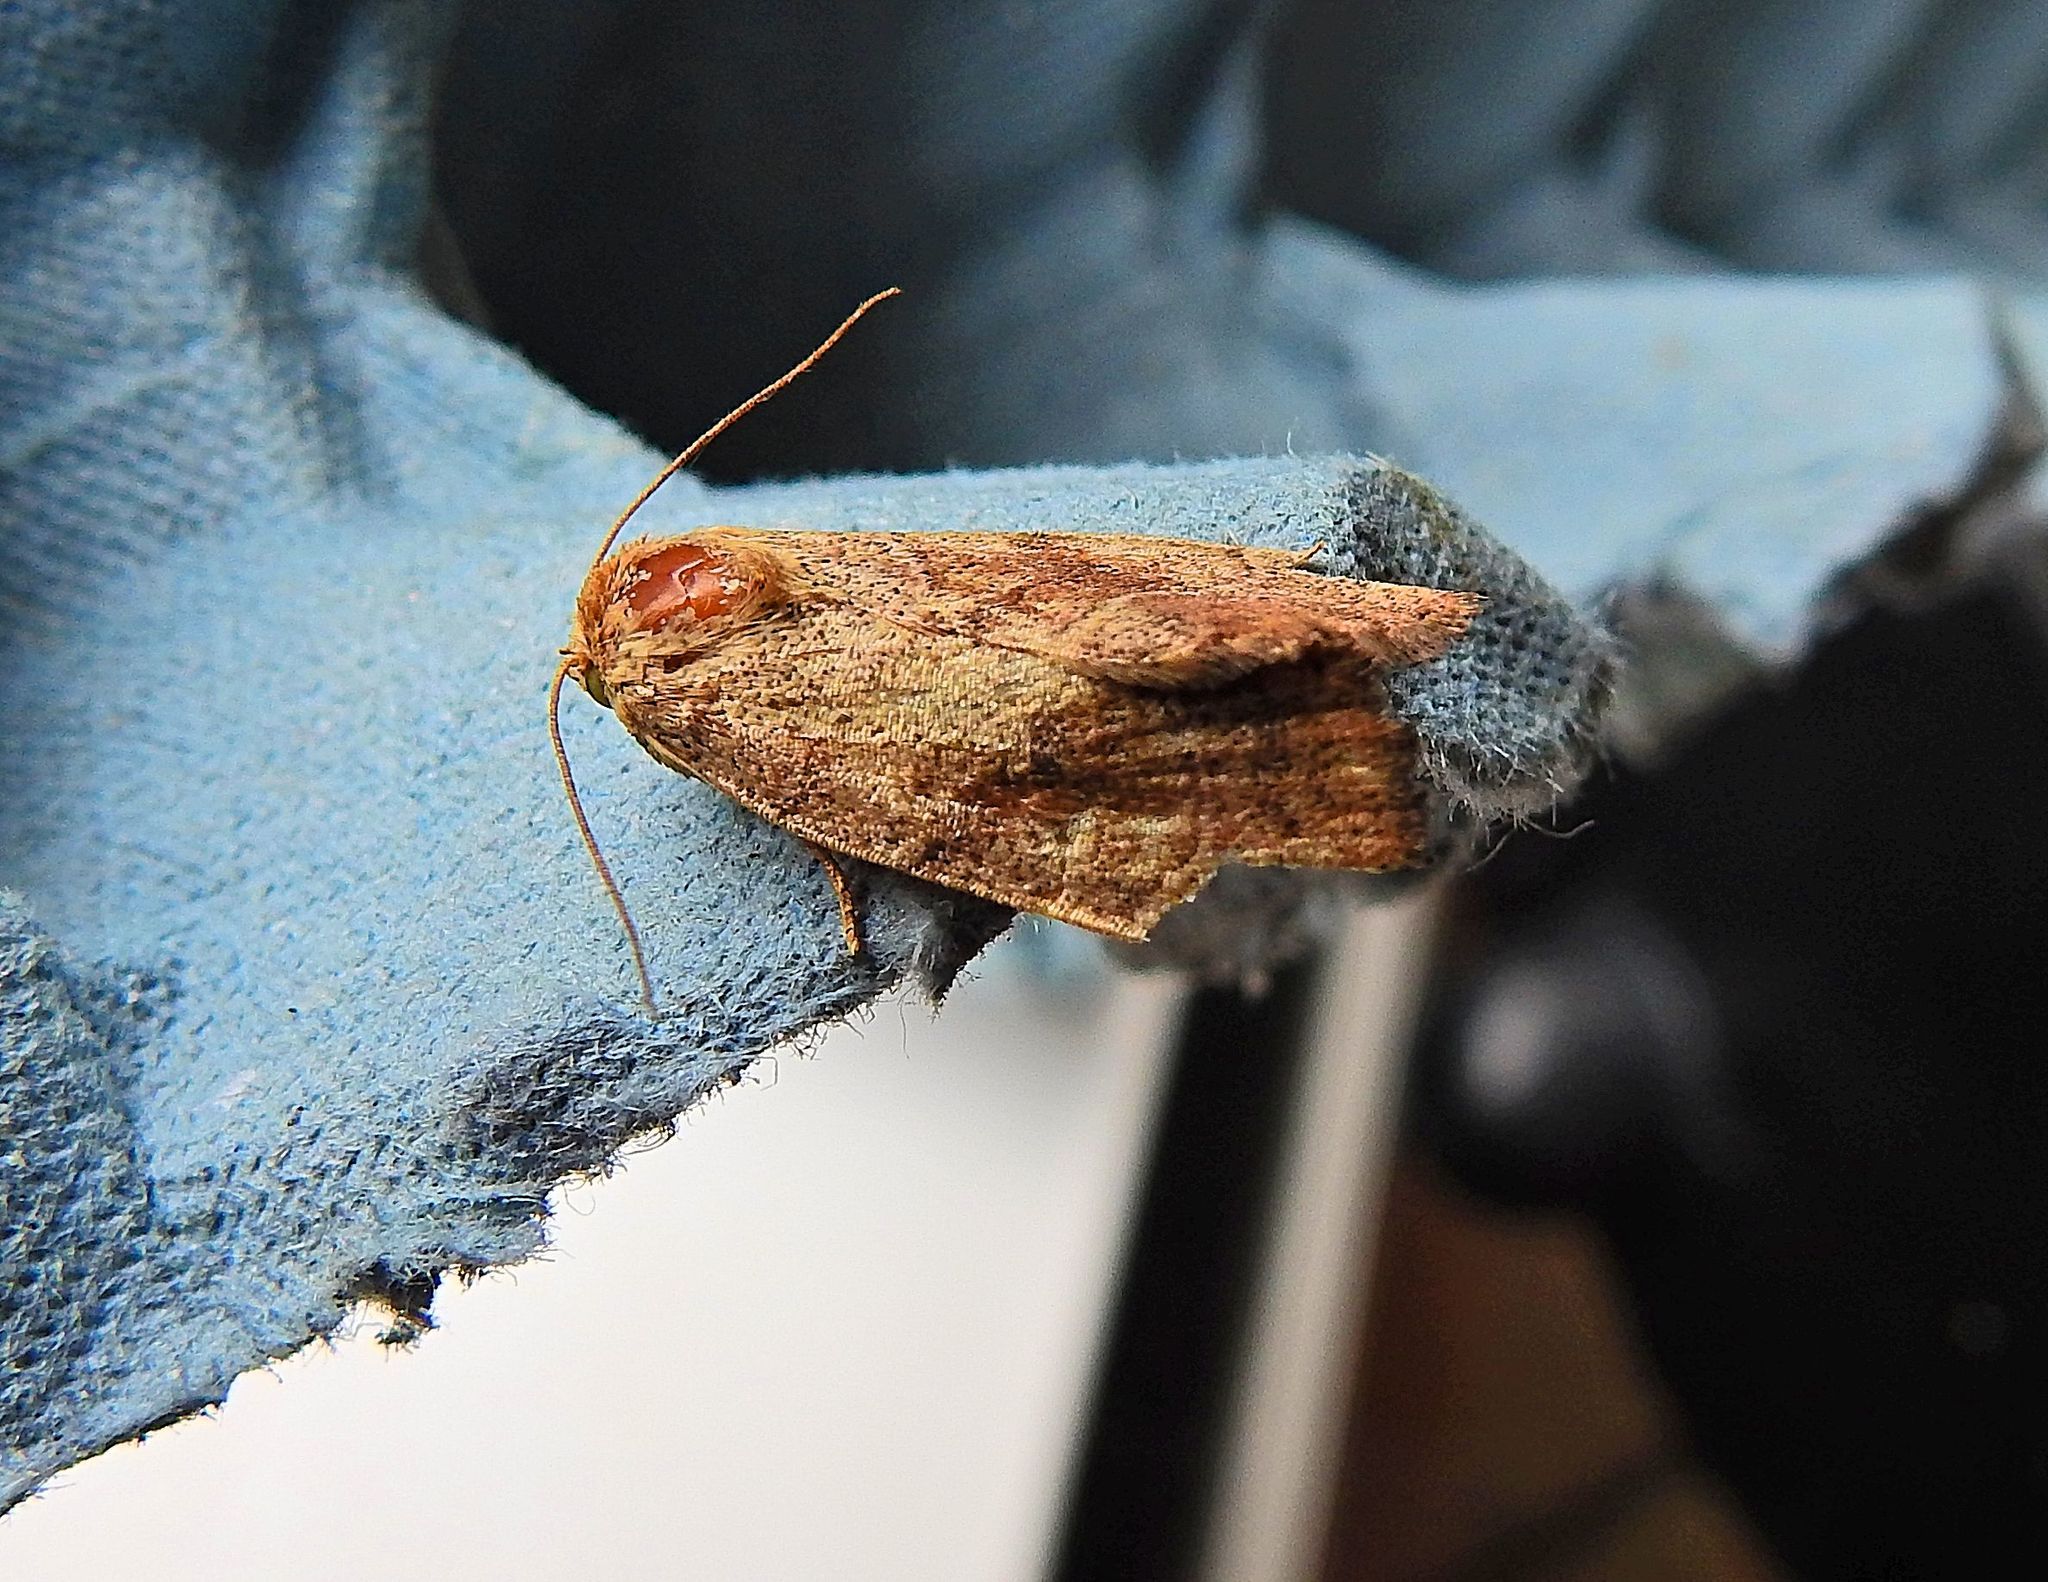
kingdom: Animalia
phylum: Arthropoda
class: Insecta
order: Lepidoptera
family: Noctuidae
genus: Cosmia
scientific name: Cosmia trapezina
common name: Dun-bar
